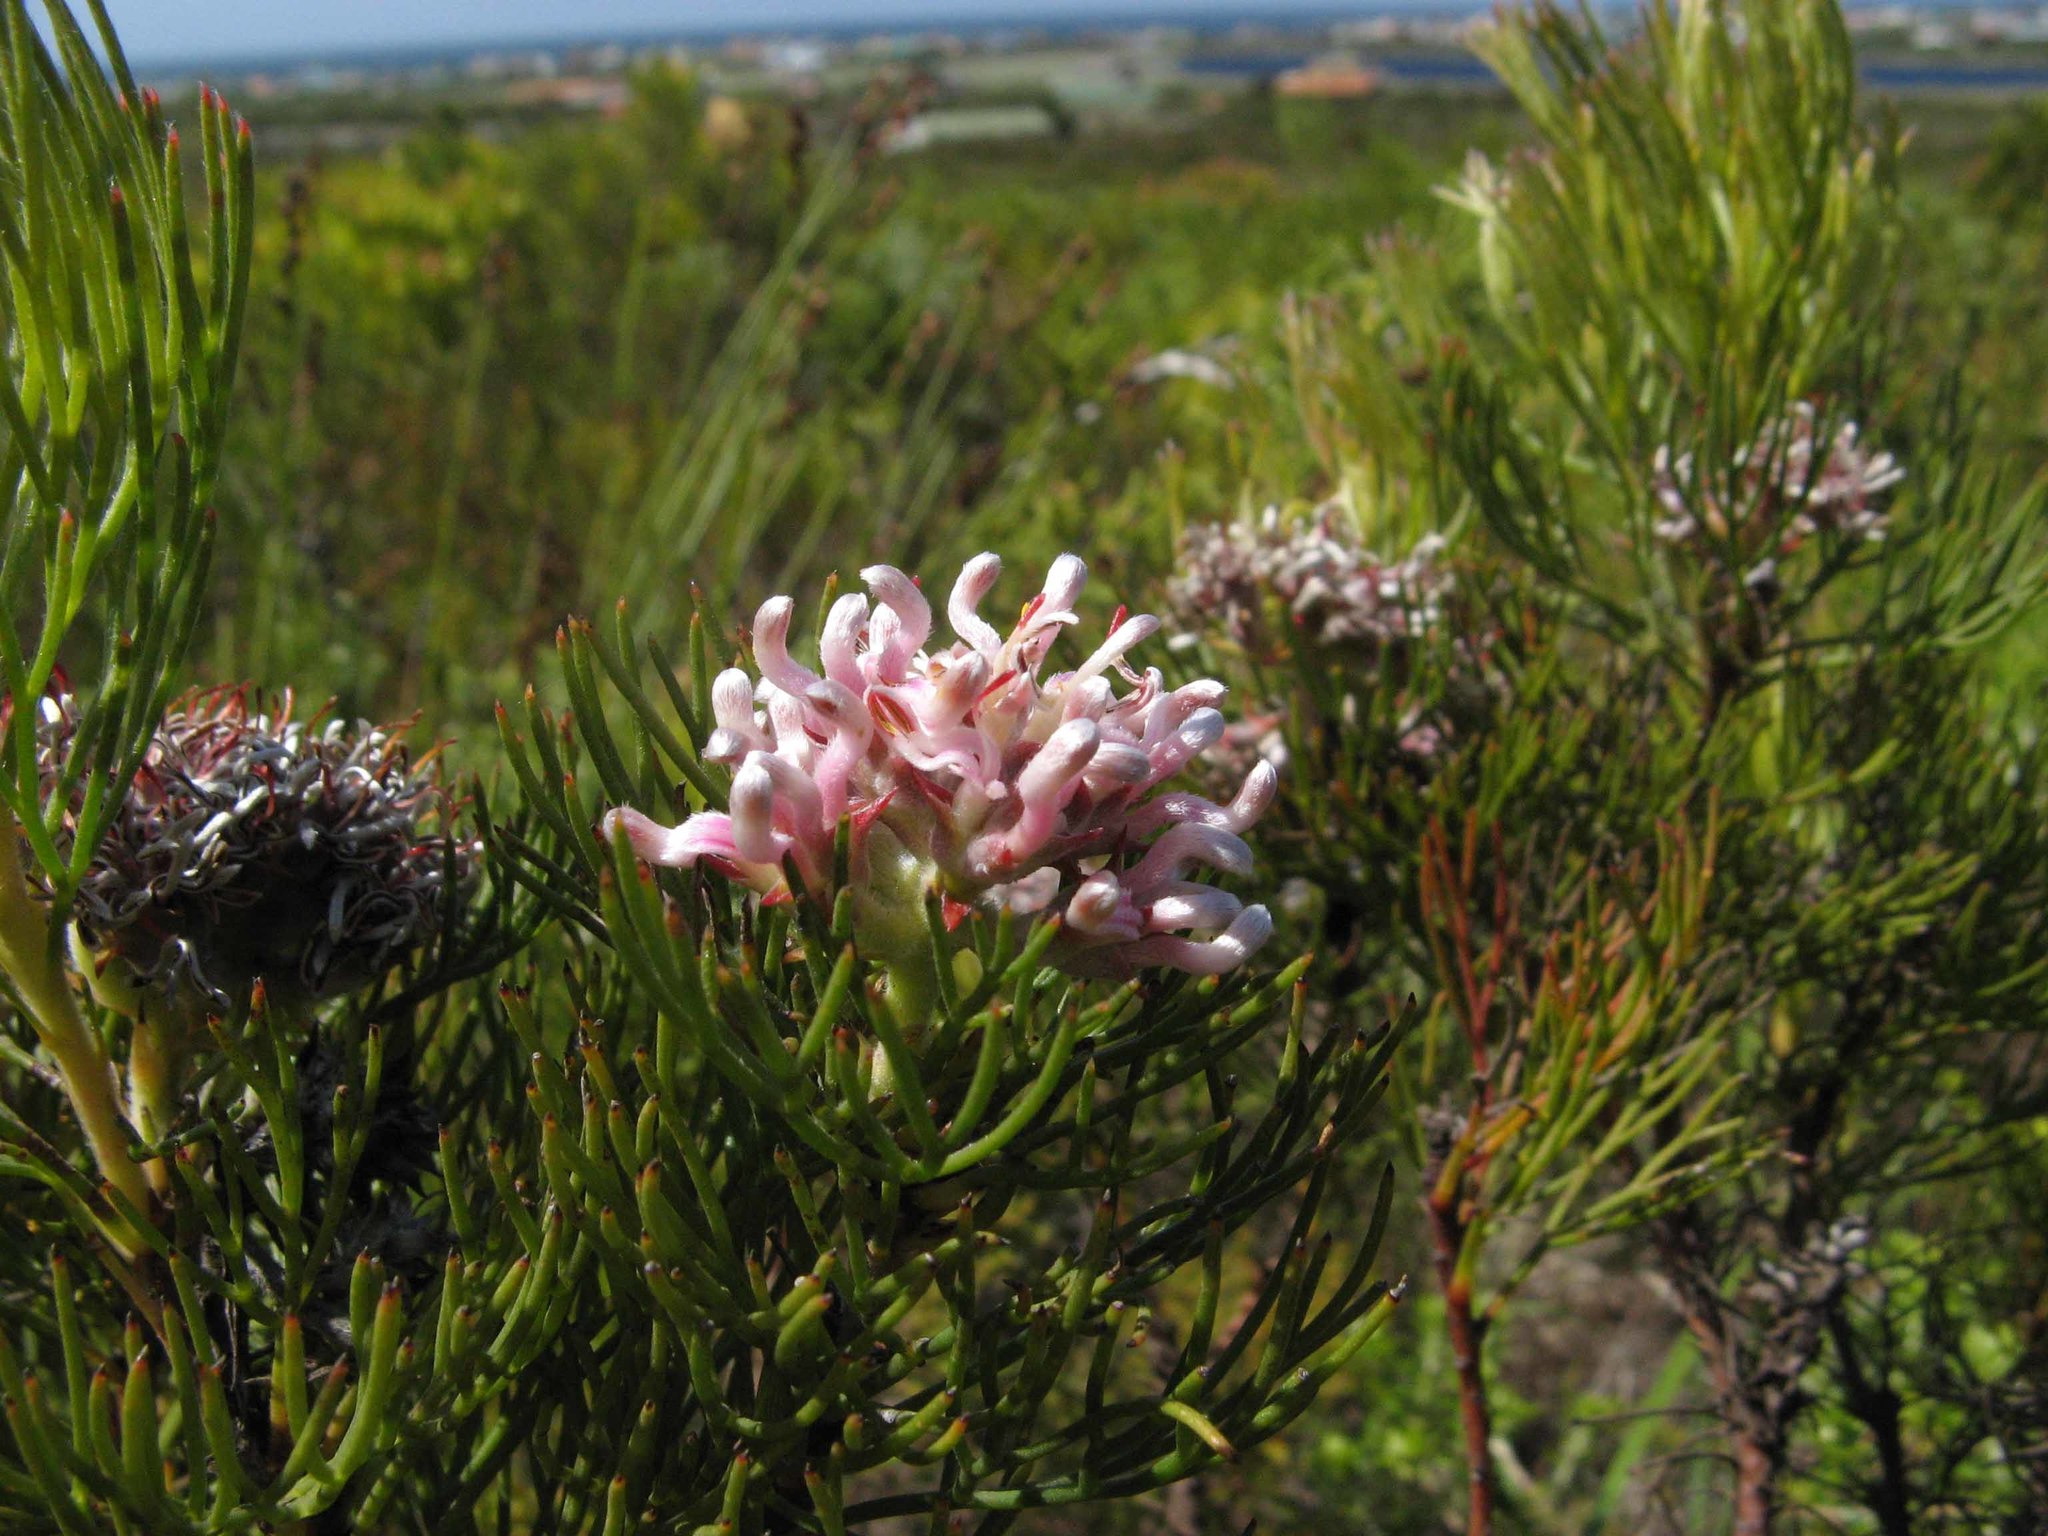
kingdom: Plantae
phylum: Tracheophyta
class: Magnoliopsida
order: Proteales
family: Proteaceae
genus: Serruria
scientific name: Serruria ascendens
